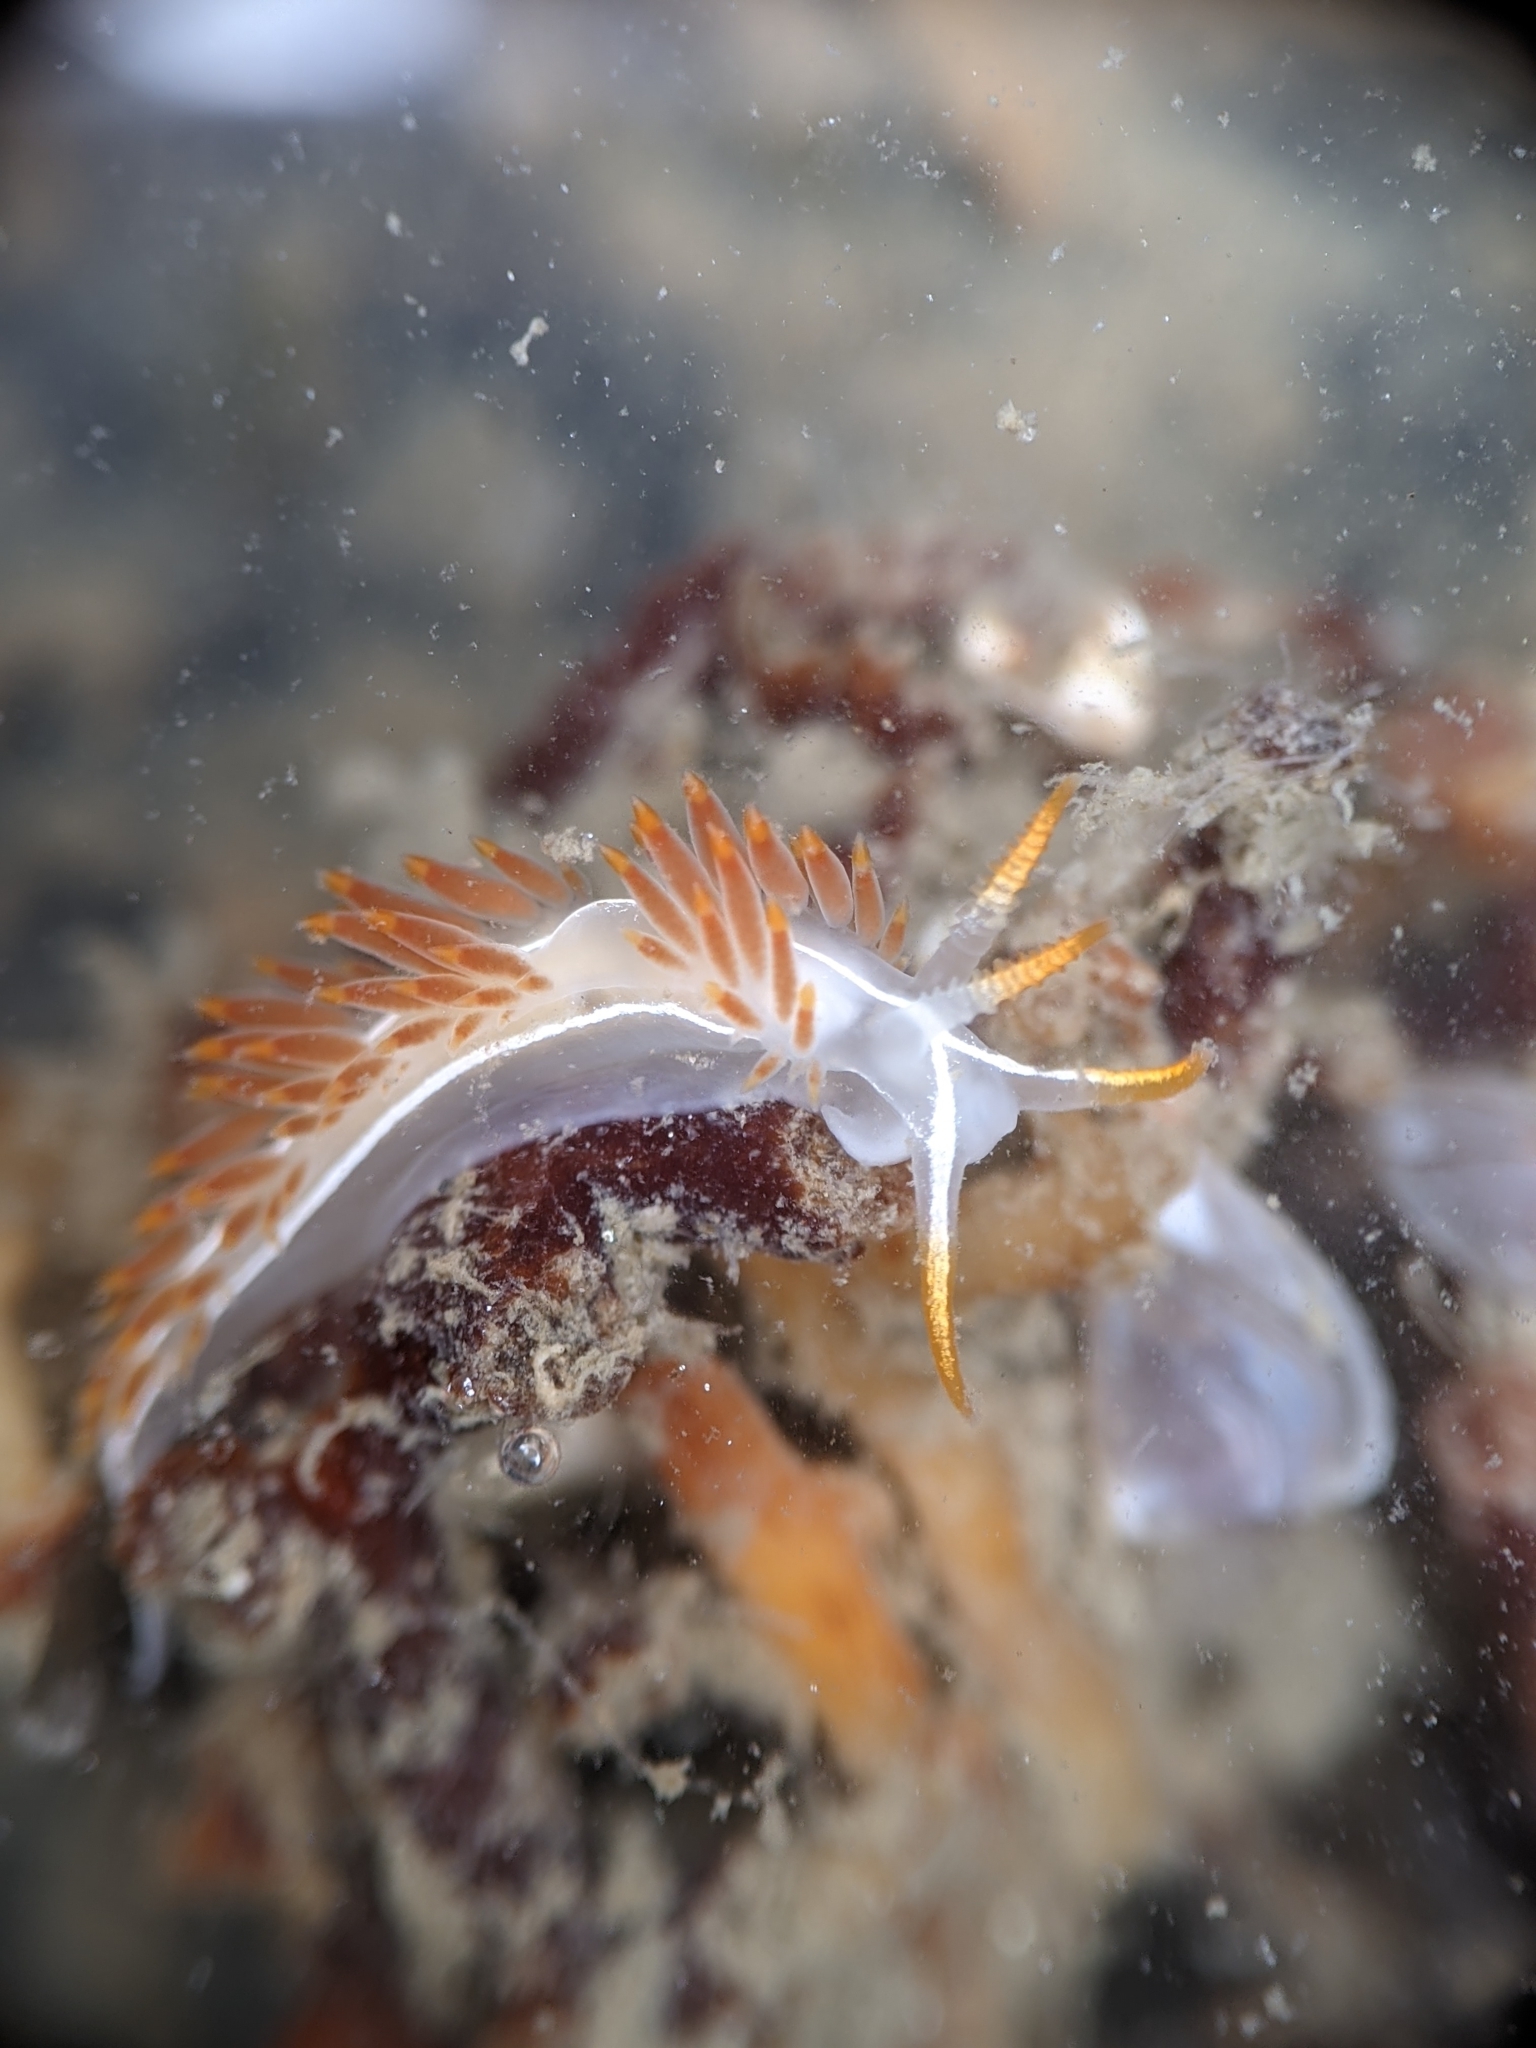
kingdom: Animalia
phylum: Mollusca
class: Gastropoda
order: Nudibranchia
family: Coryphellidae
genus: Coryphella
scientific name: Coryphella trilineata
